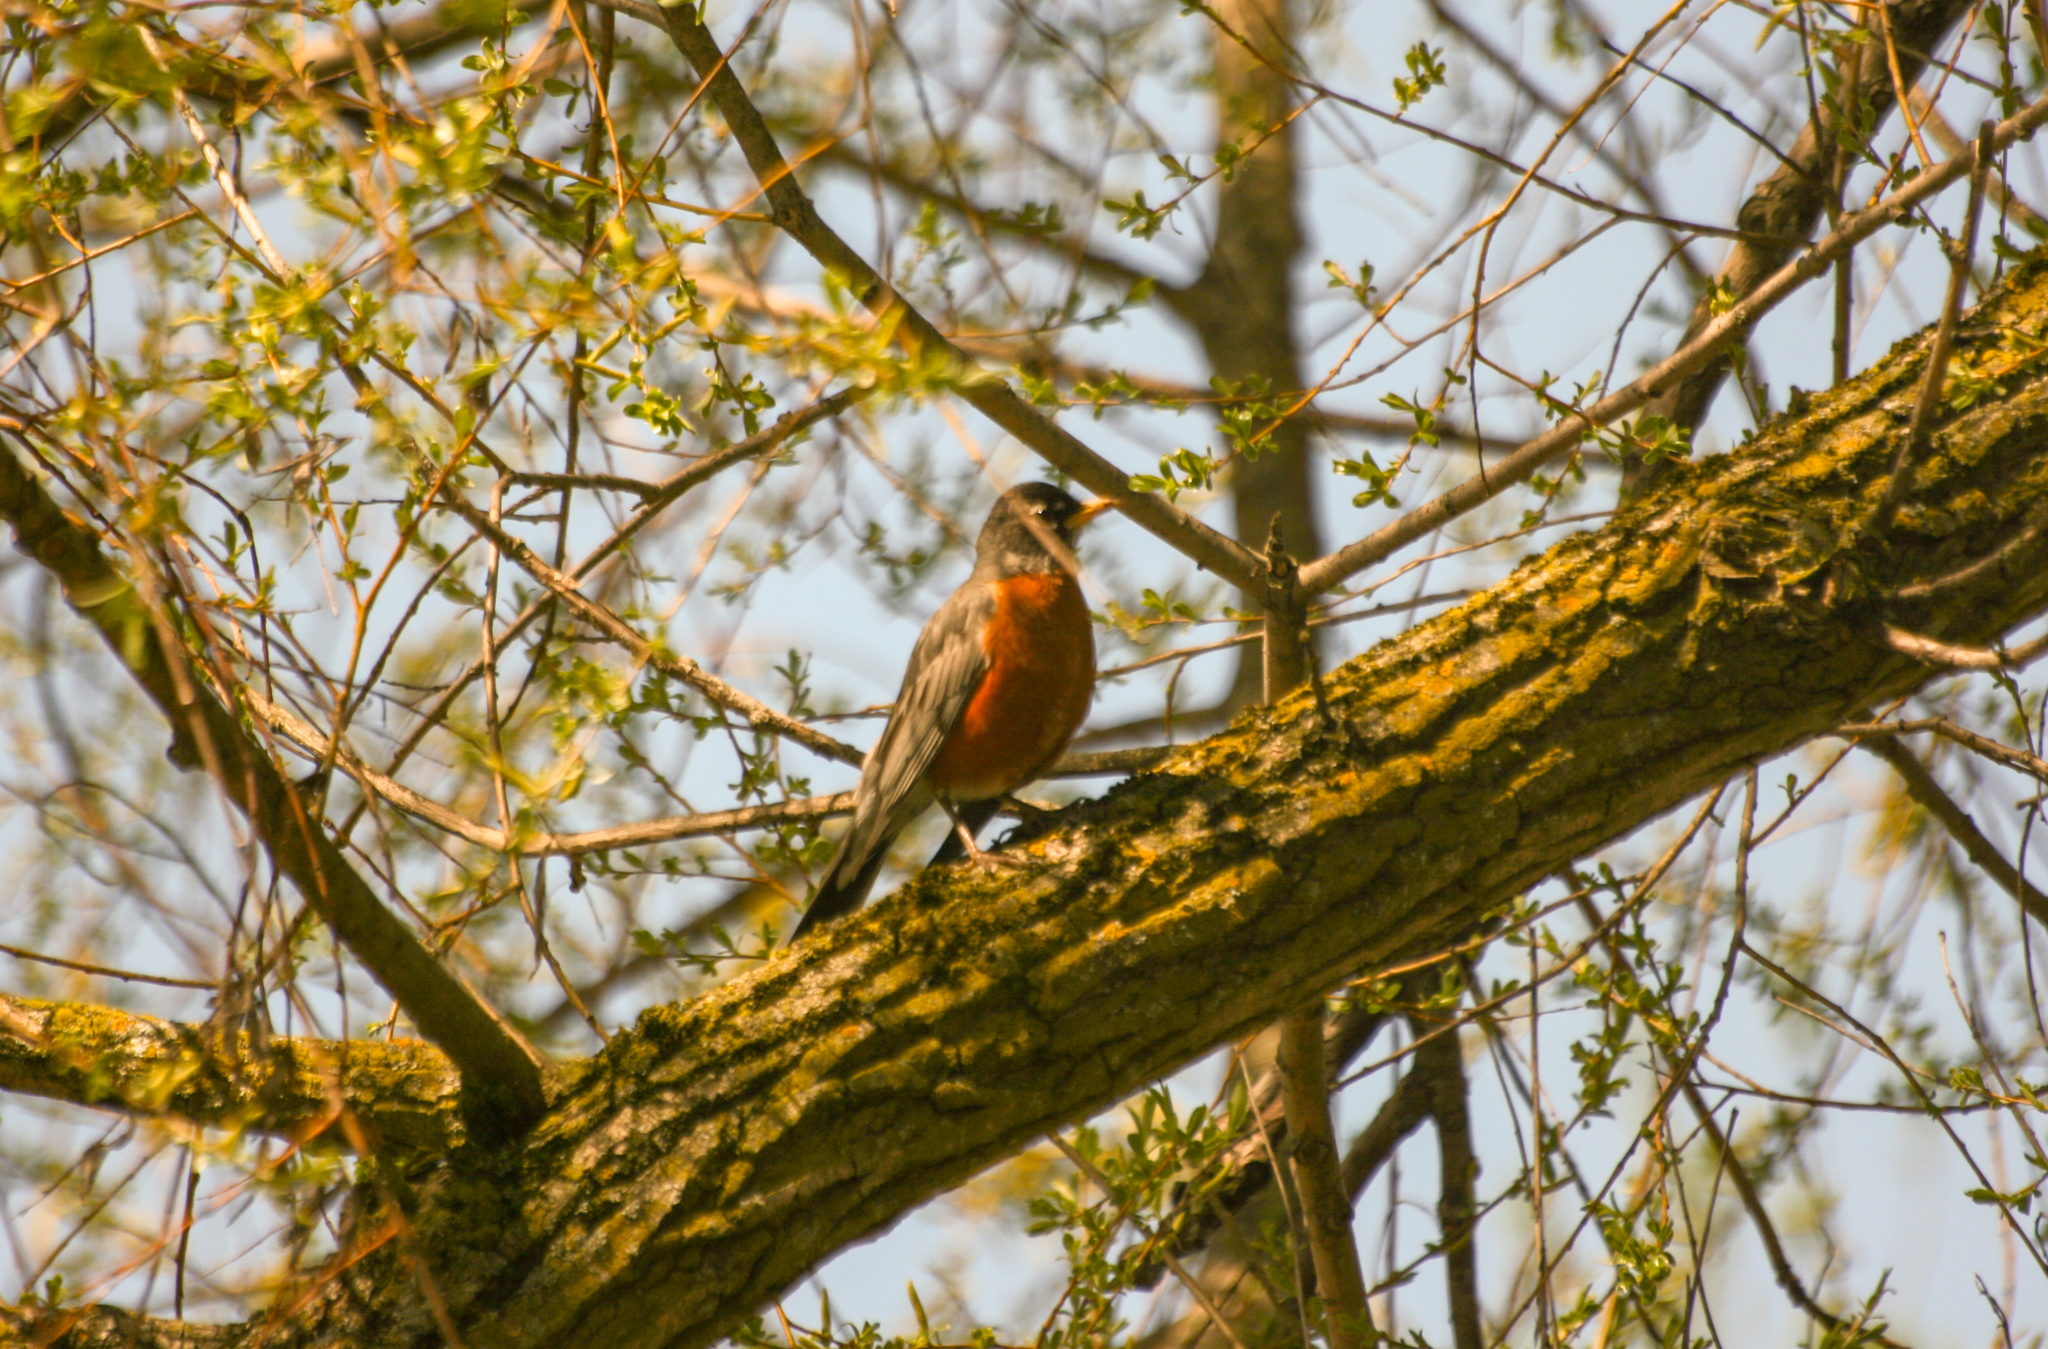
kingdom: Animalia
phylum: Chordata
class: Aves
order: Passeriformes
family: Turdidae
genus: Turdus
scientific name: Turdus migratorius
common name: American robin
